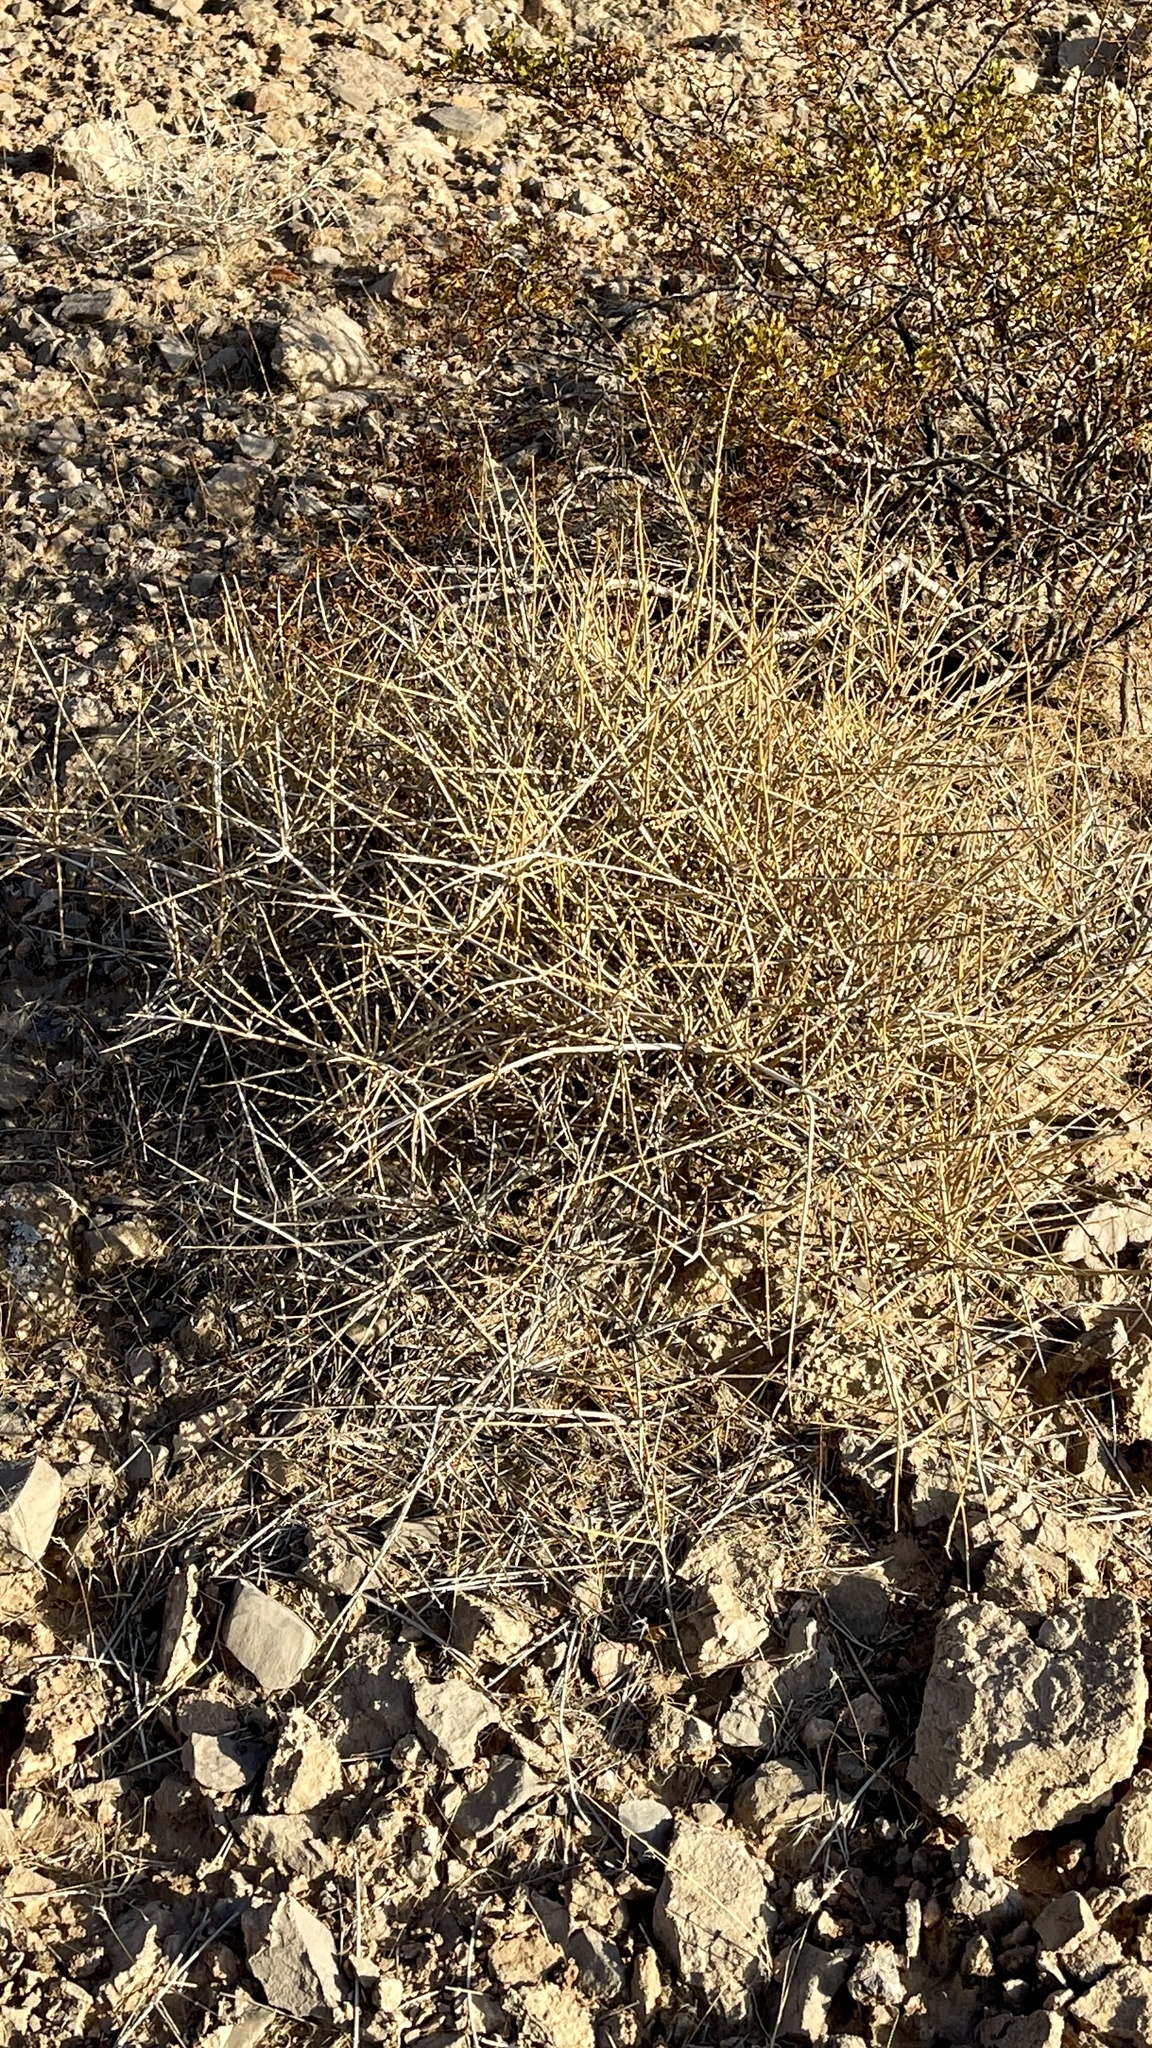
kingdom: Plantae
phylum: Tracheophyta
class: Gnetopsida
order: Ephedrales
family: Ephedraceae
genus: Ephedra
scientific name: Ephedra nevadensis
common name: Gray ephedra
